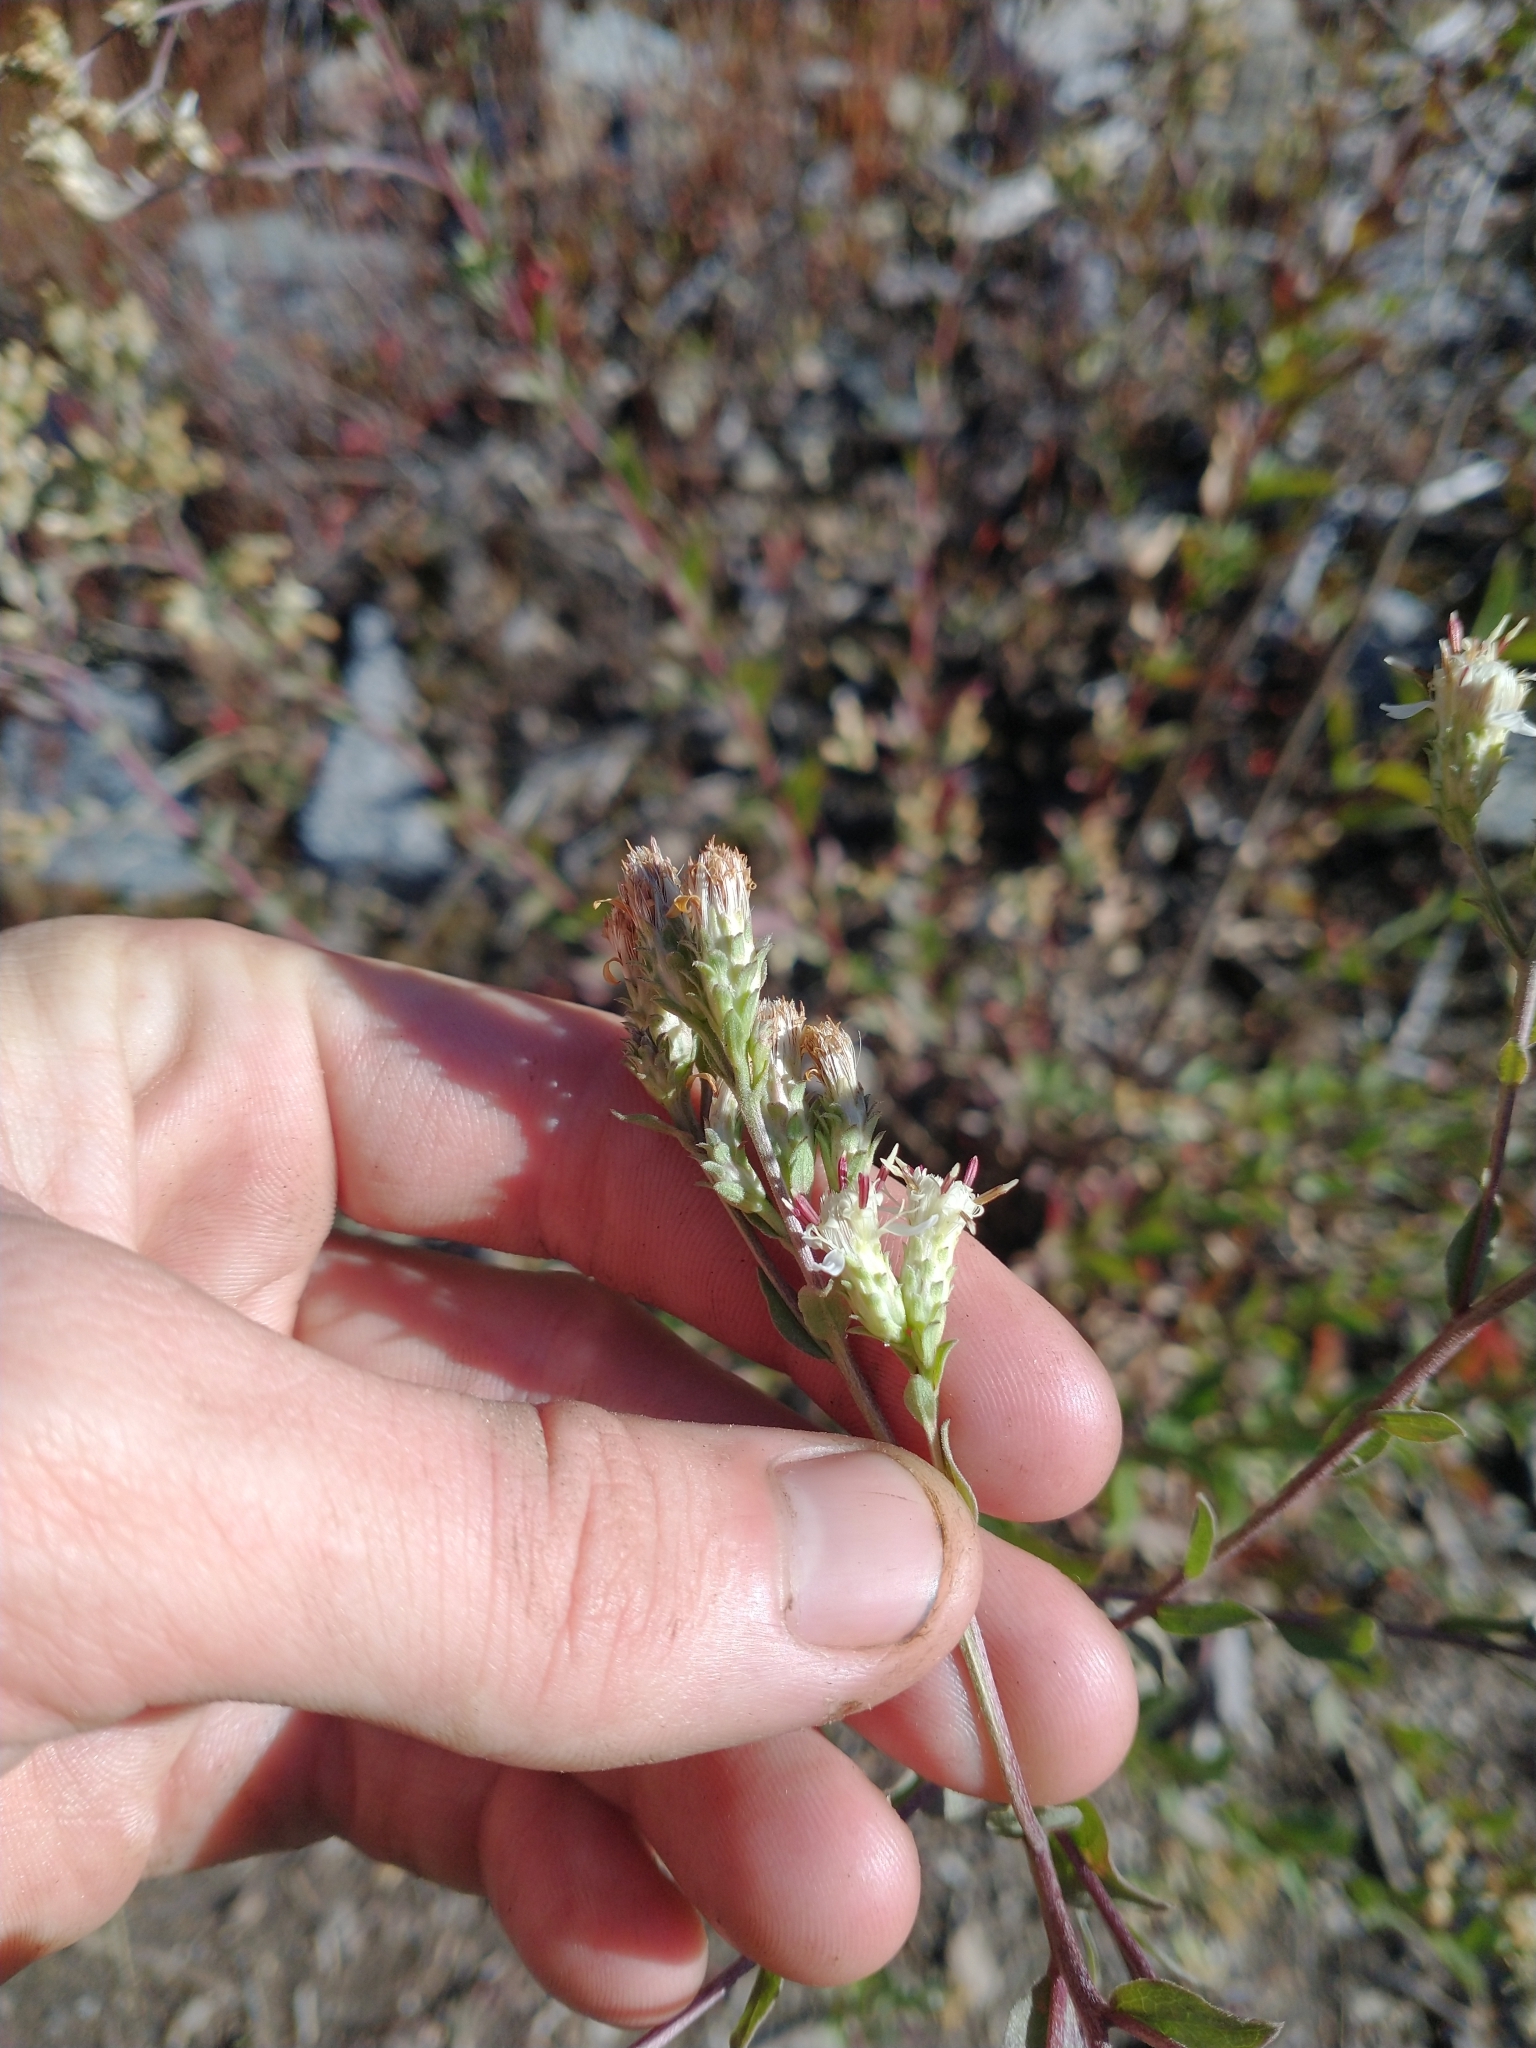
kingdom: Plantae
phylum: Tracheophyta
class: Magnoliopsida
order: Asterales
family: Asteraceae
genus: Sericocarpus
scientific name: Sericocarpus oregonensis
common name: Oregon white-top aster
